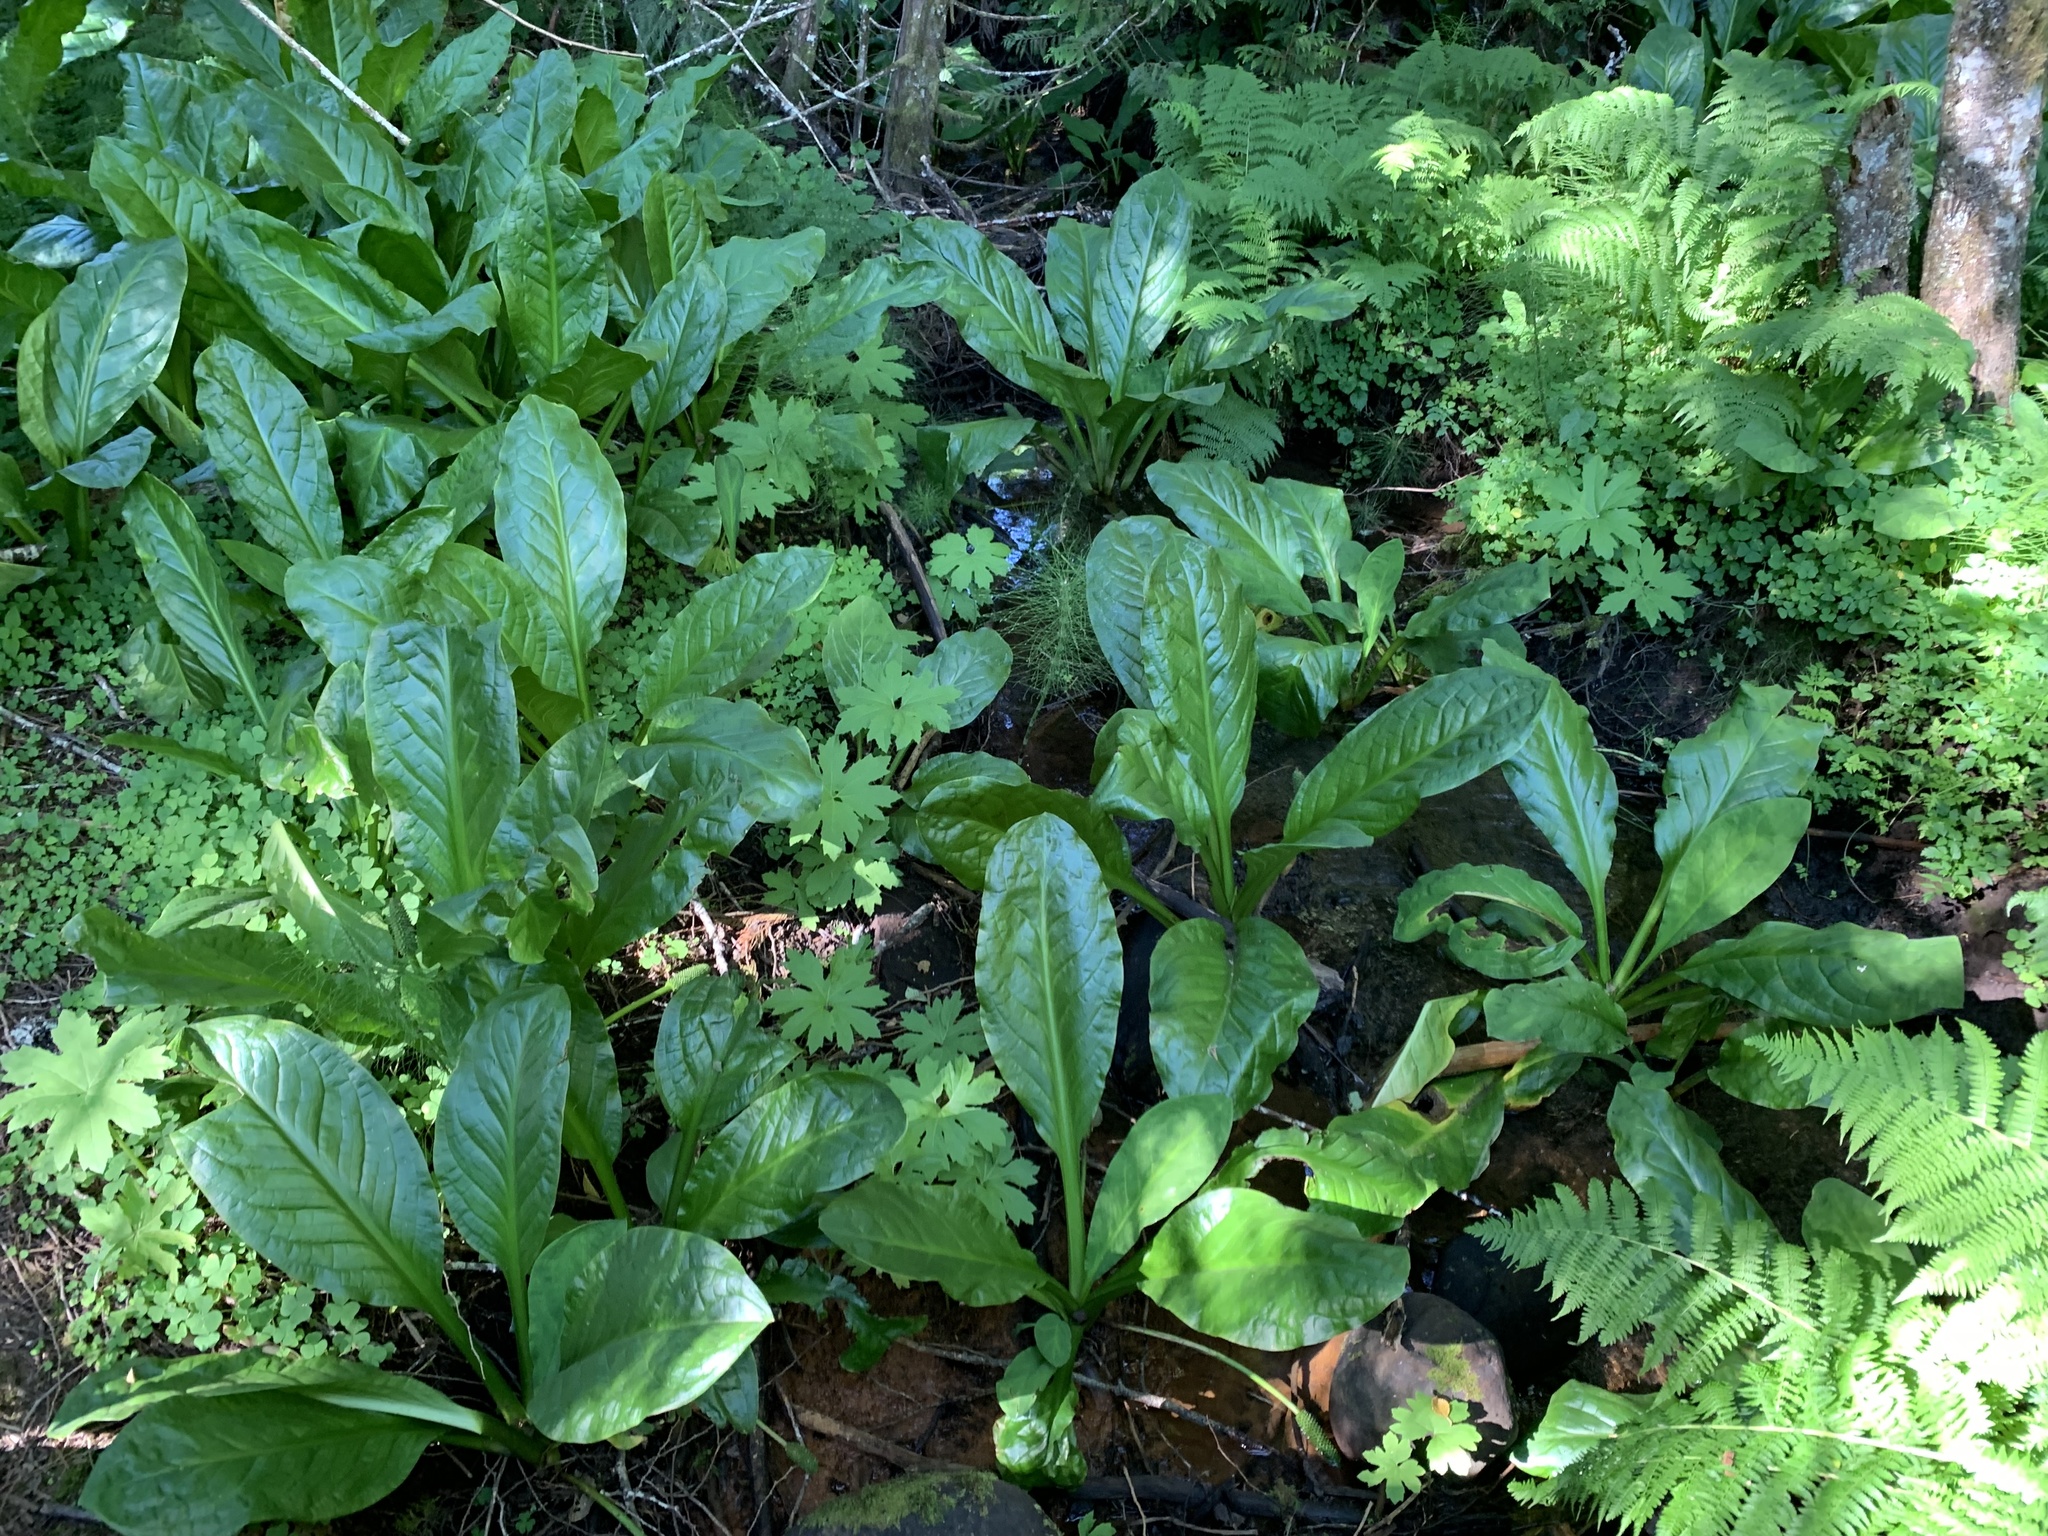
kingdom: Plantae
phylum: Tracheophyta
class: Liliopsida
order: Alismatales
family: Araceae
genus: Lysichiton
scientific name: Lysichiton americanus
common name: American skunk cabbage
